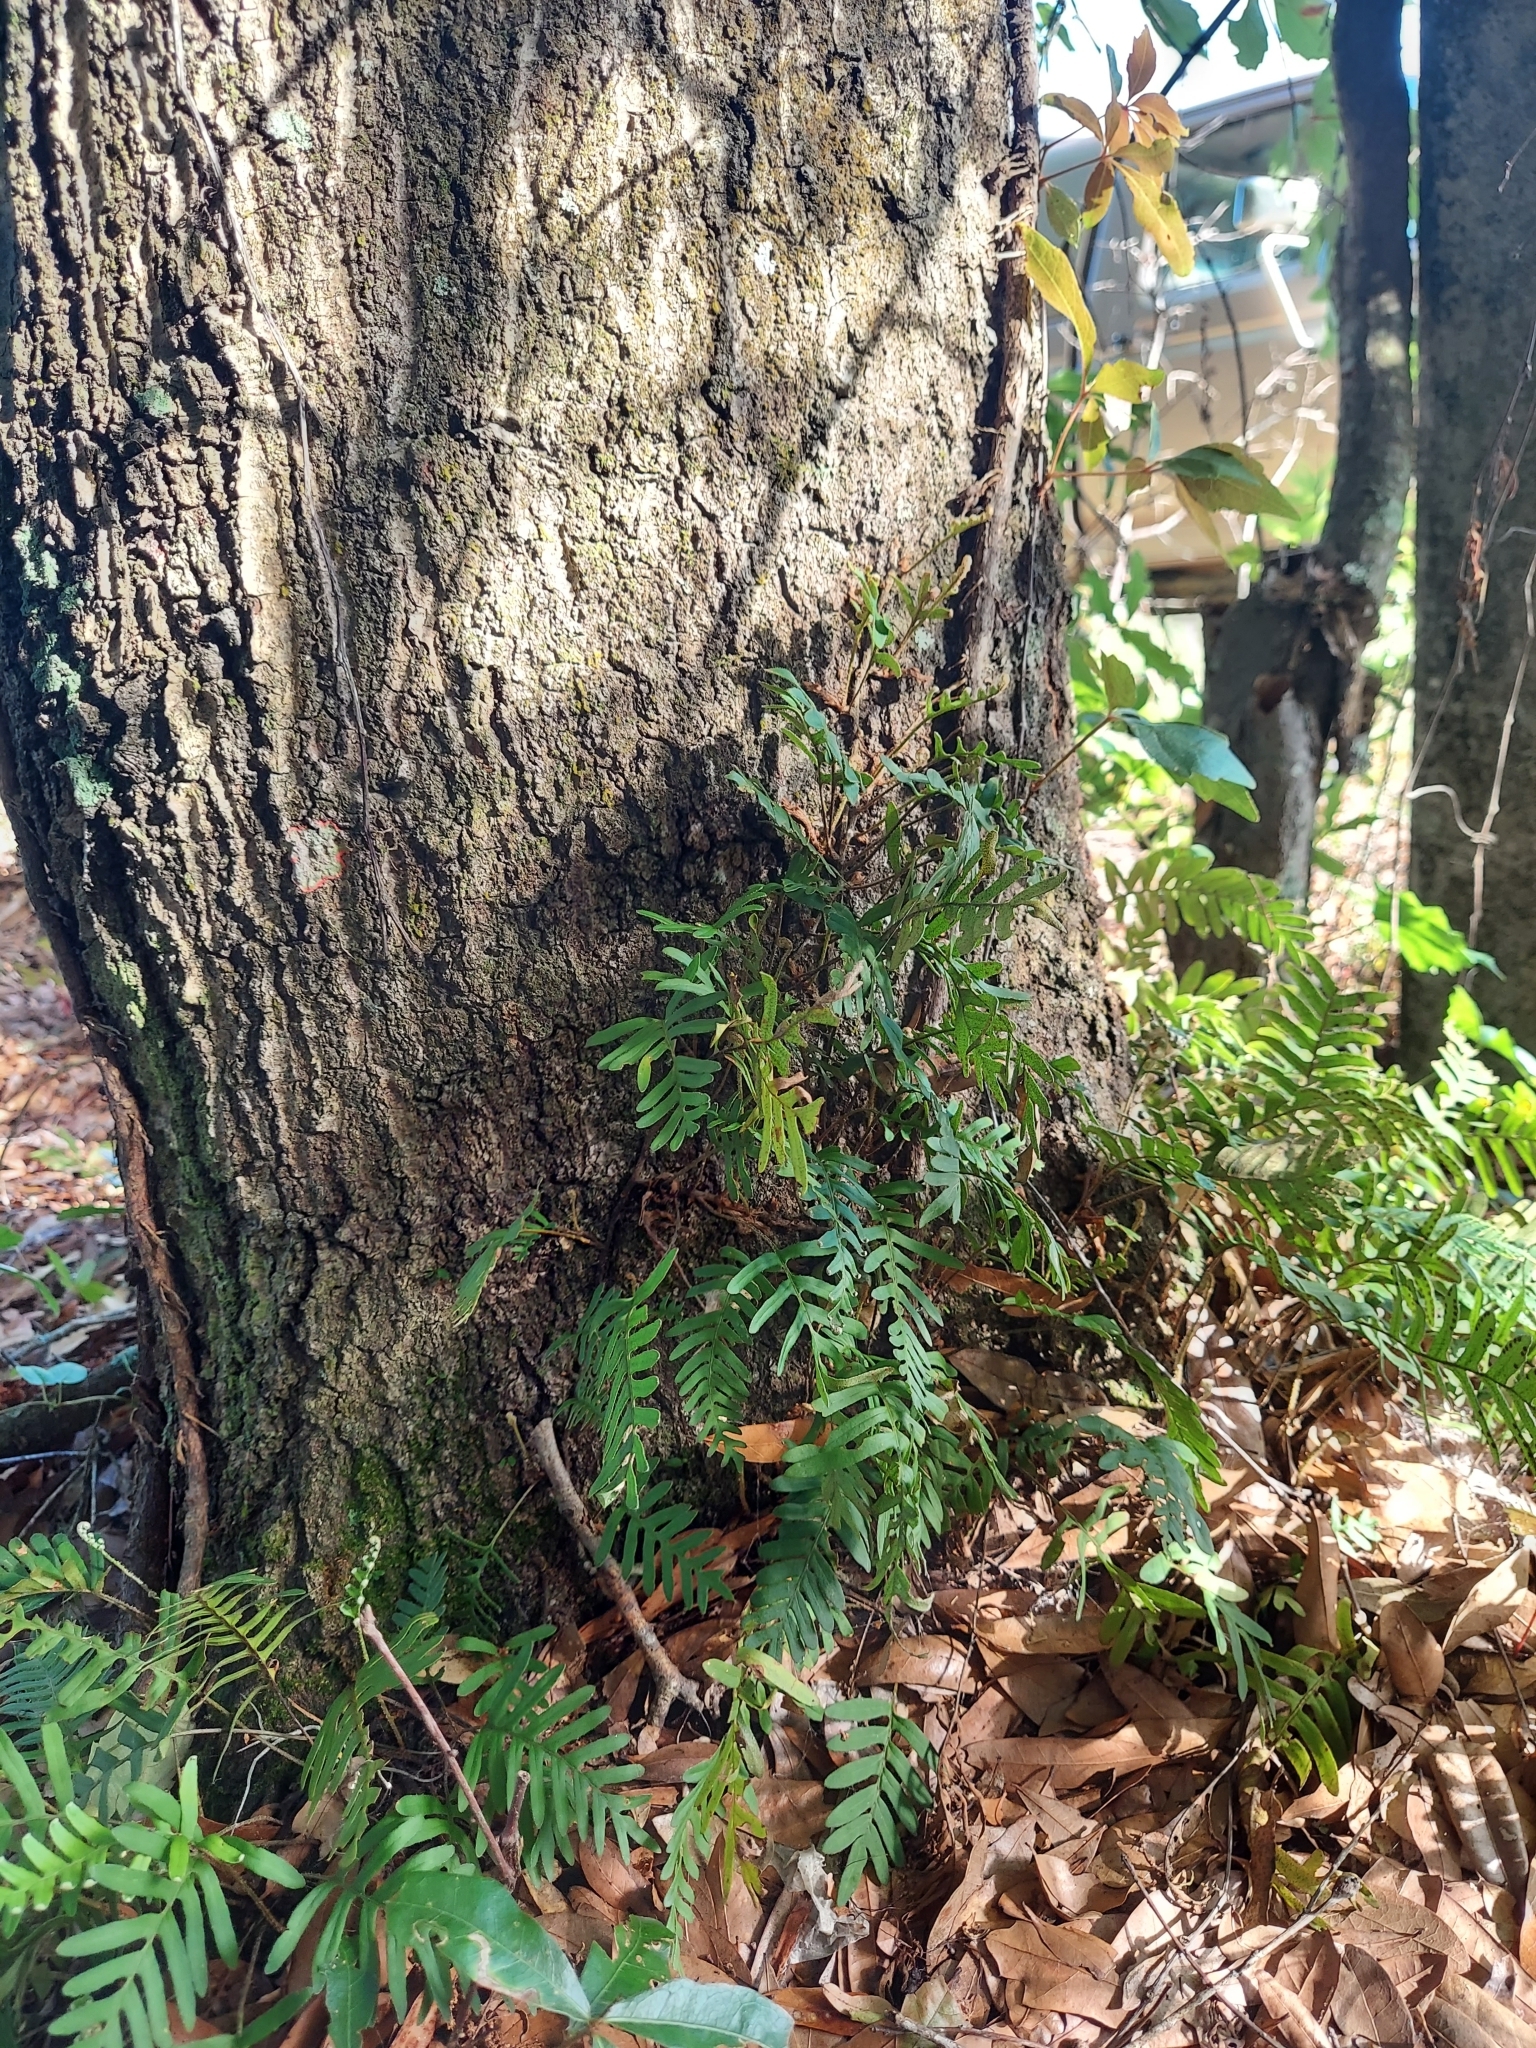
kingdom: Plantae
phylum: Tracheophyta
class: Polypodiopsida
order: Polypodiales
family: Polypodiaceae
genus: Pleopeltis
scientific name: Pleopeltis michauxiana
